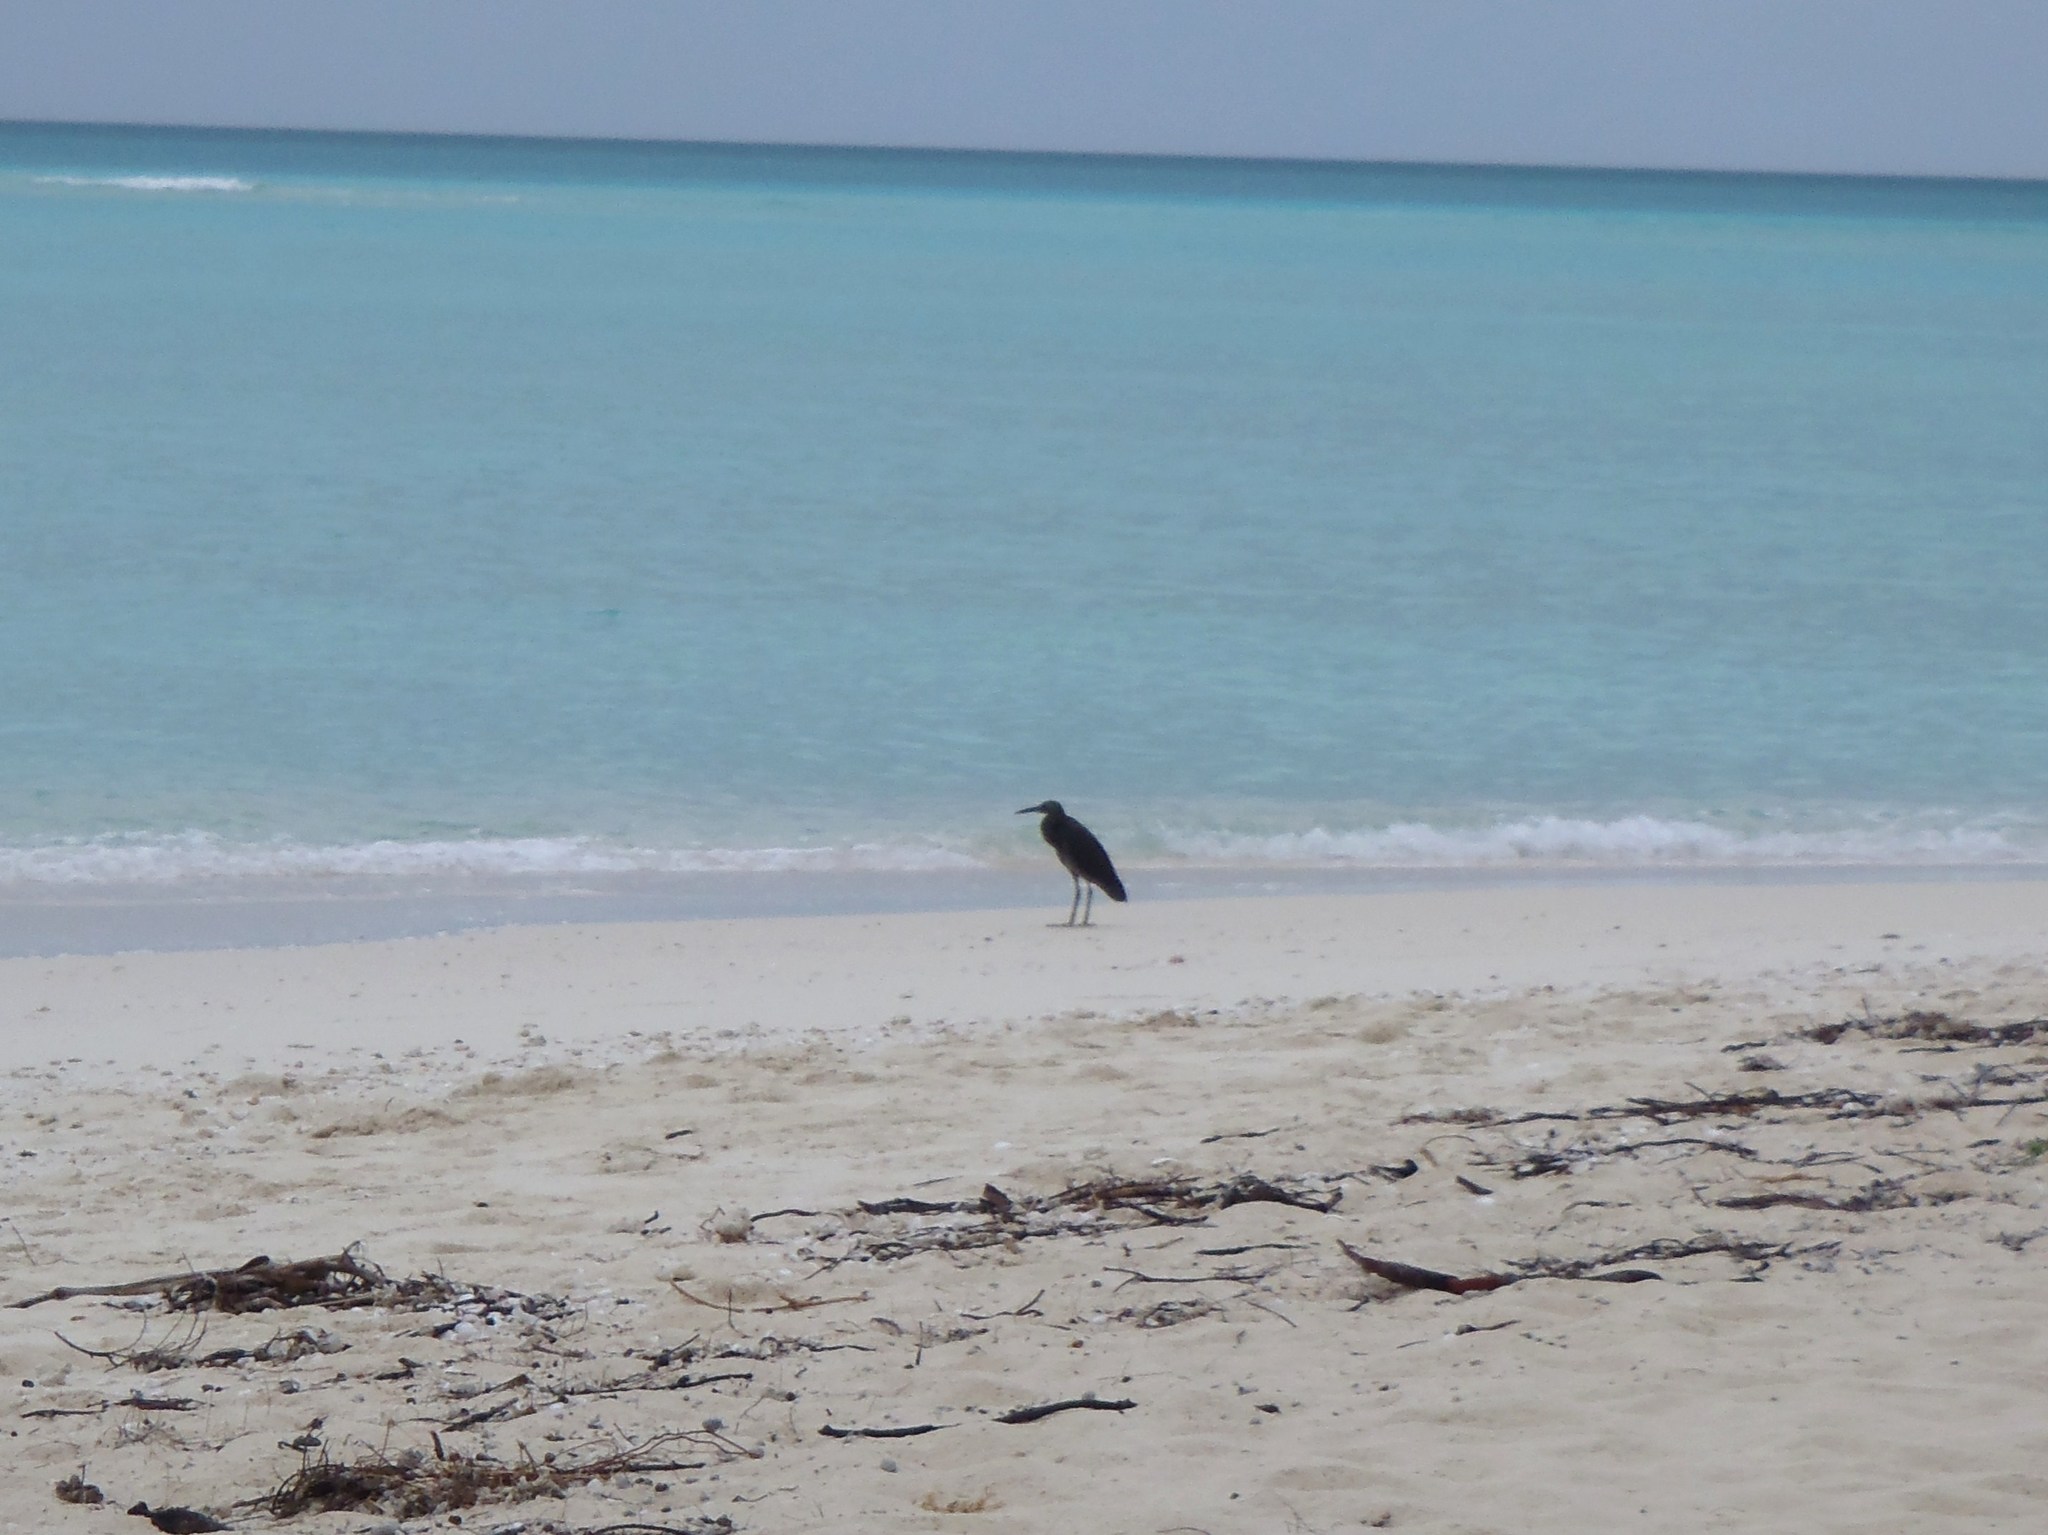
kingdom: Animalia
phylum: Chordata
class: Aves
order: Pelecaniformes
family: Ardeidae
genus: Egretta
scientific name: Egretta sacra
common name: Pacific reef heron
